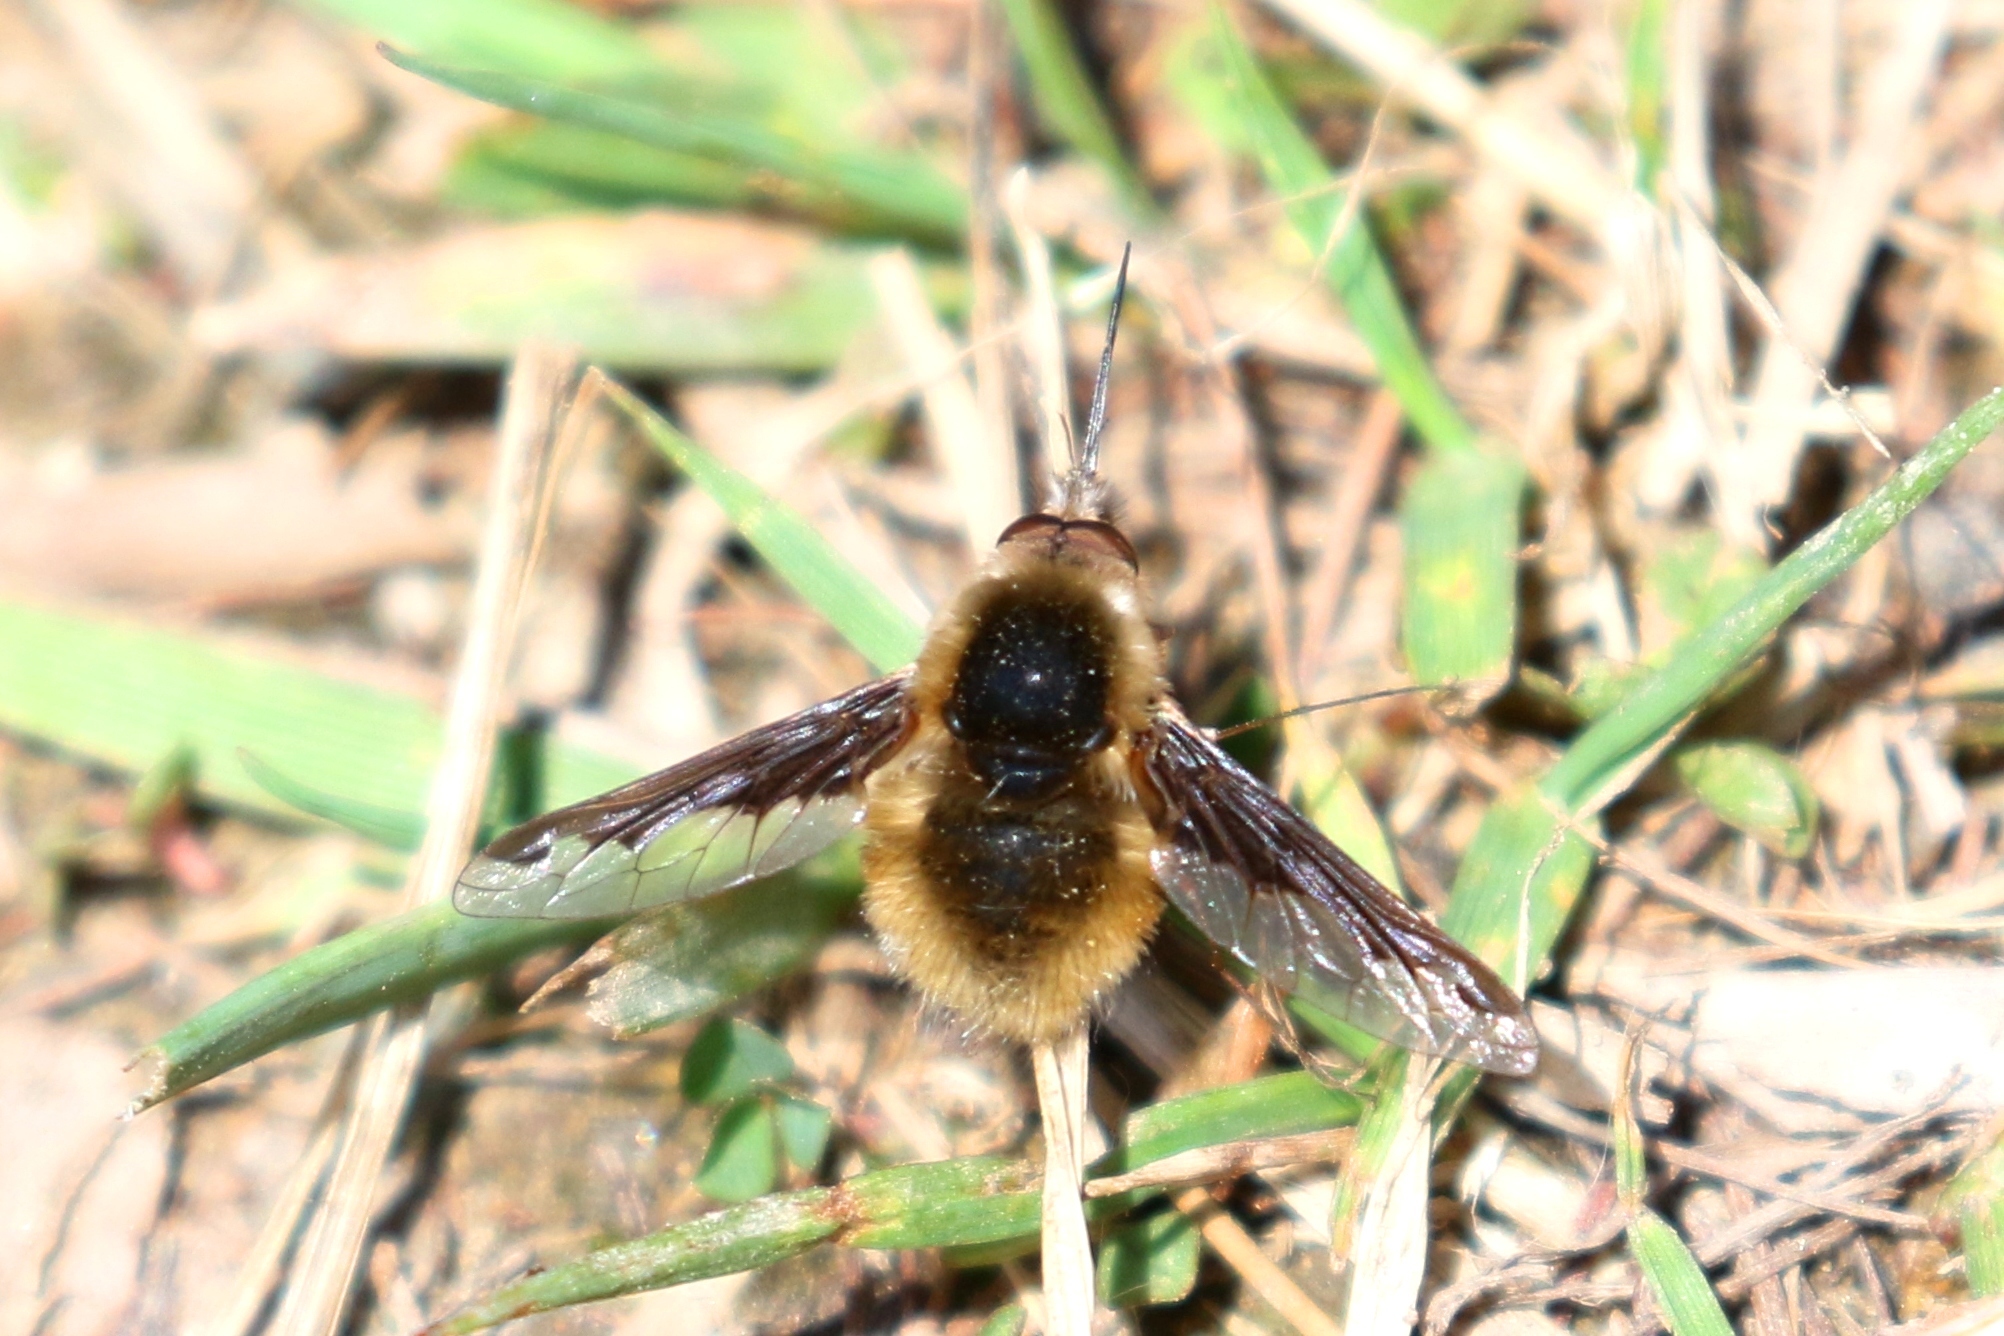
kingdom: Animalia
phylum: Arthropoda
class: Insecta
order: Diptera
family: Bombyliidae
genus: Bombylius
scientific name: Bombylius major
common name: Bee fly
